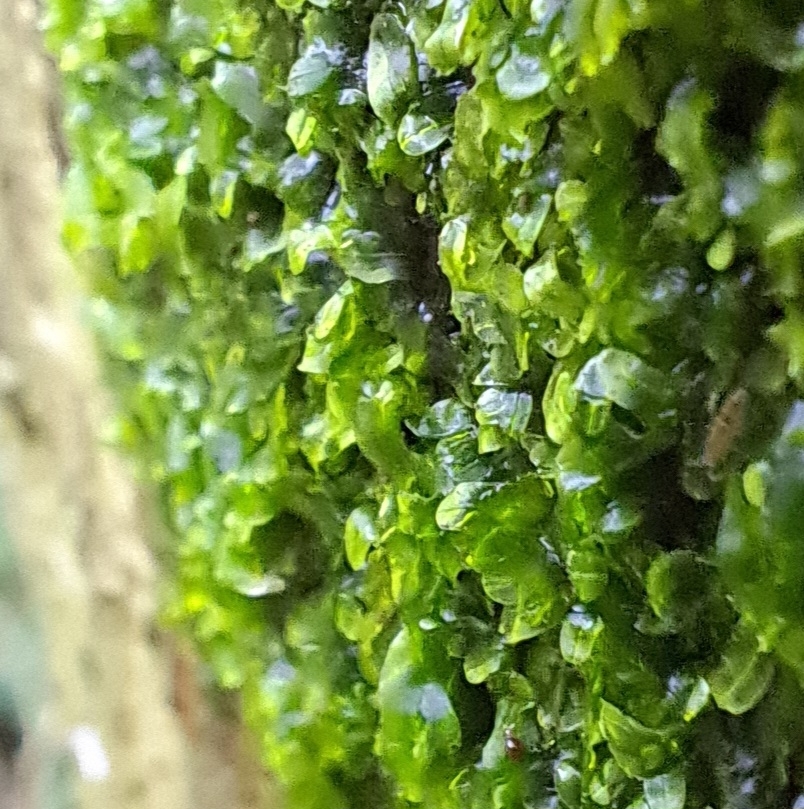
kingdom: Plantae
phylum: Marchantiophyta
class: Jungermanniopsida
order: Metzgeriales
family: Metzgeriaceae
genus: Metzgeria
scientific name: Metzgeria furcata
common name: Forked veilwort
